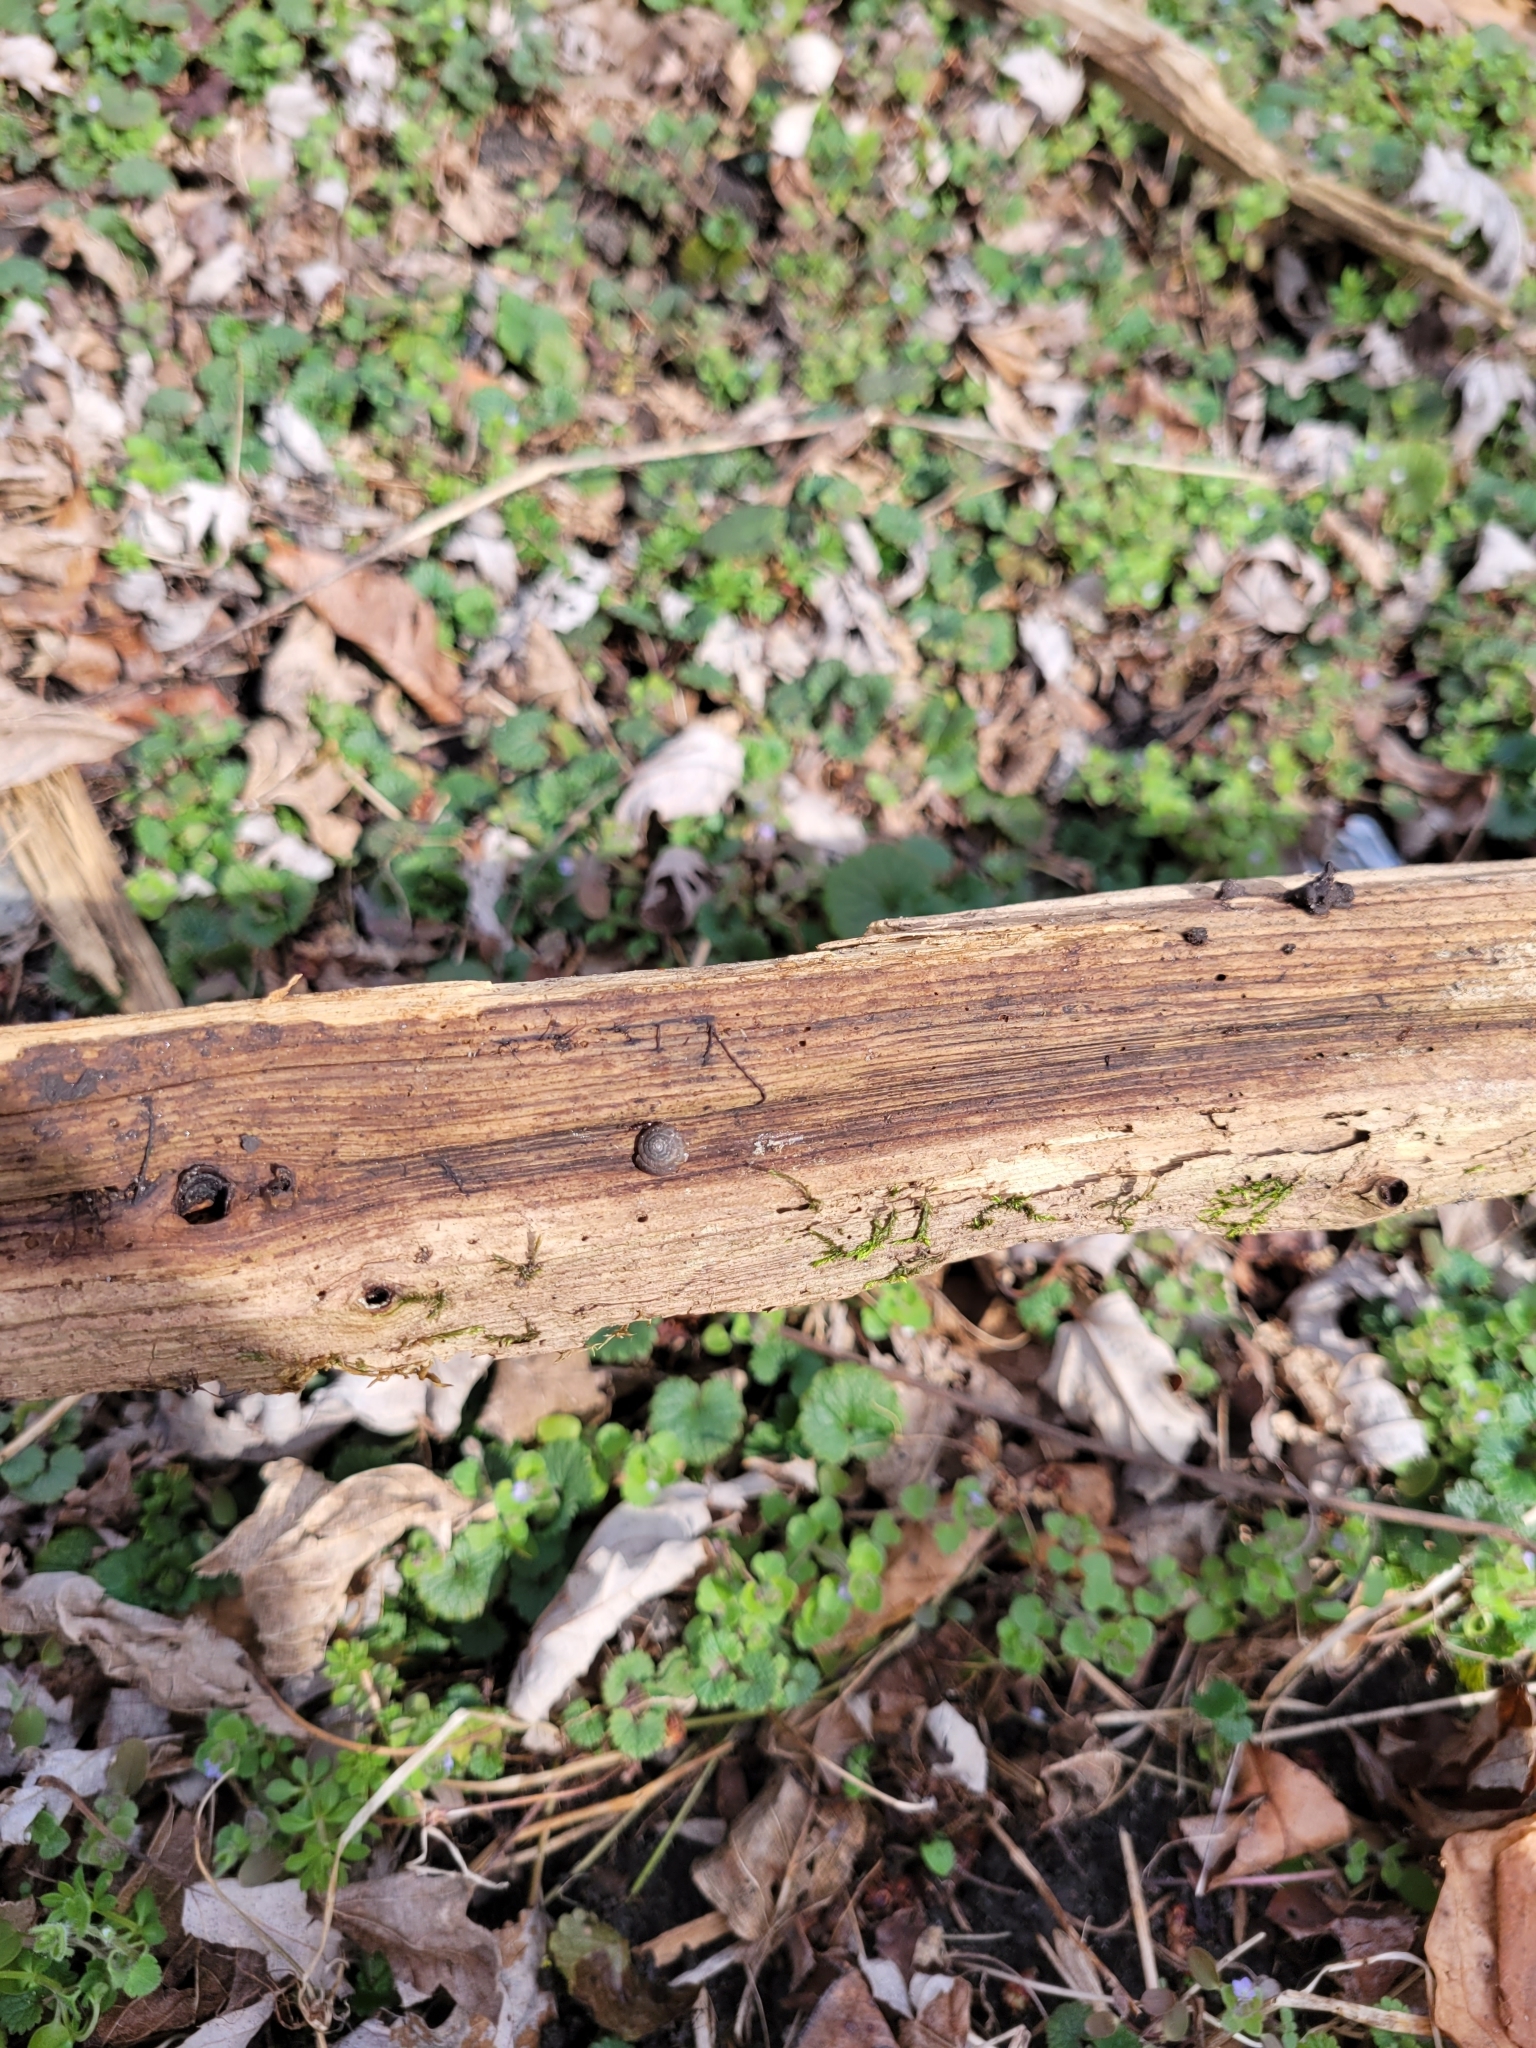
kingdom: Animalia
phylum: Mollusca
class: Gastropoda
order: Stylommatophora
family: Discidae
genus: Discus
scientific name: Discus rotundatus
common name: Rounded snail
